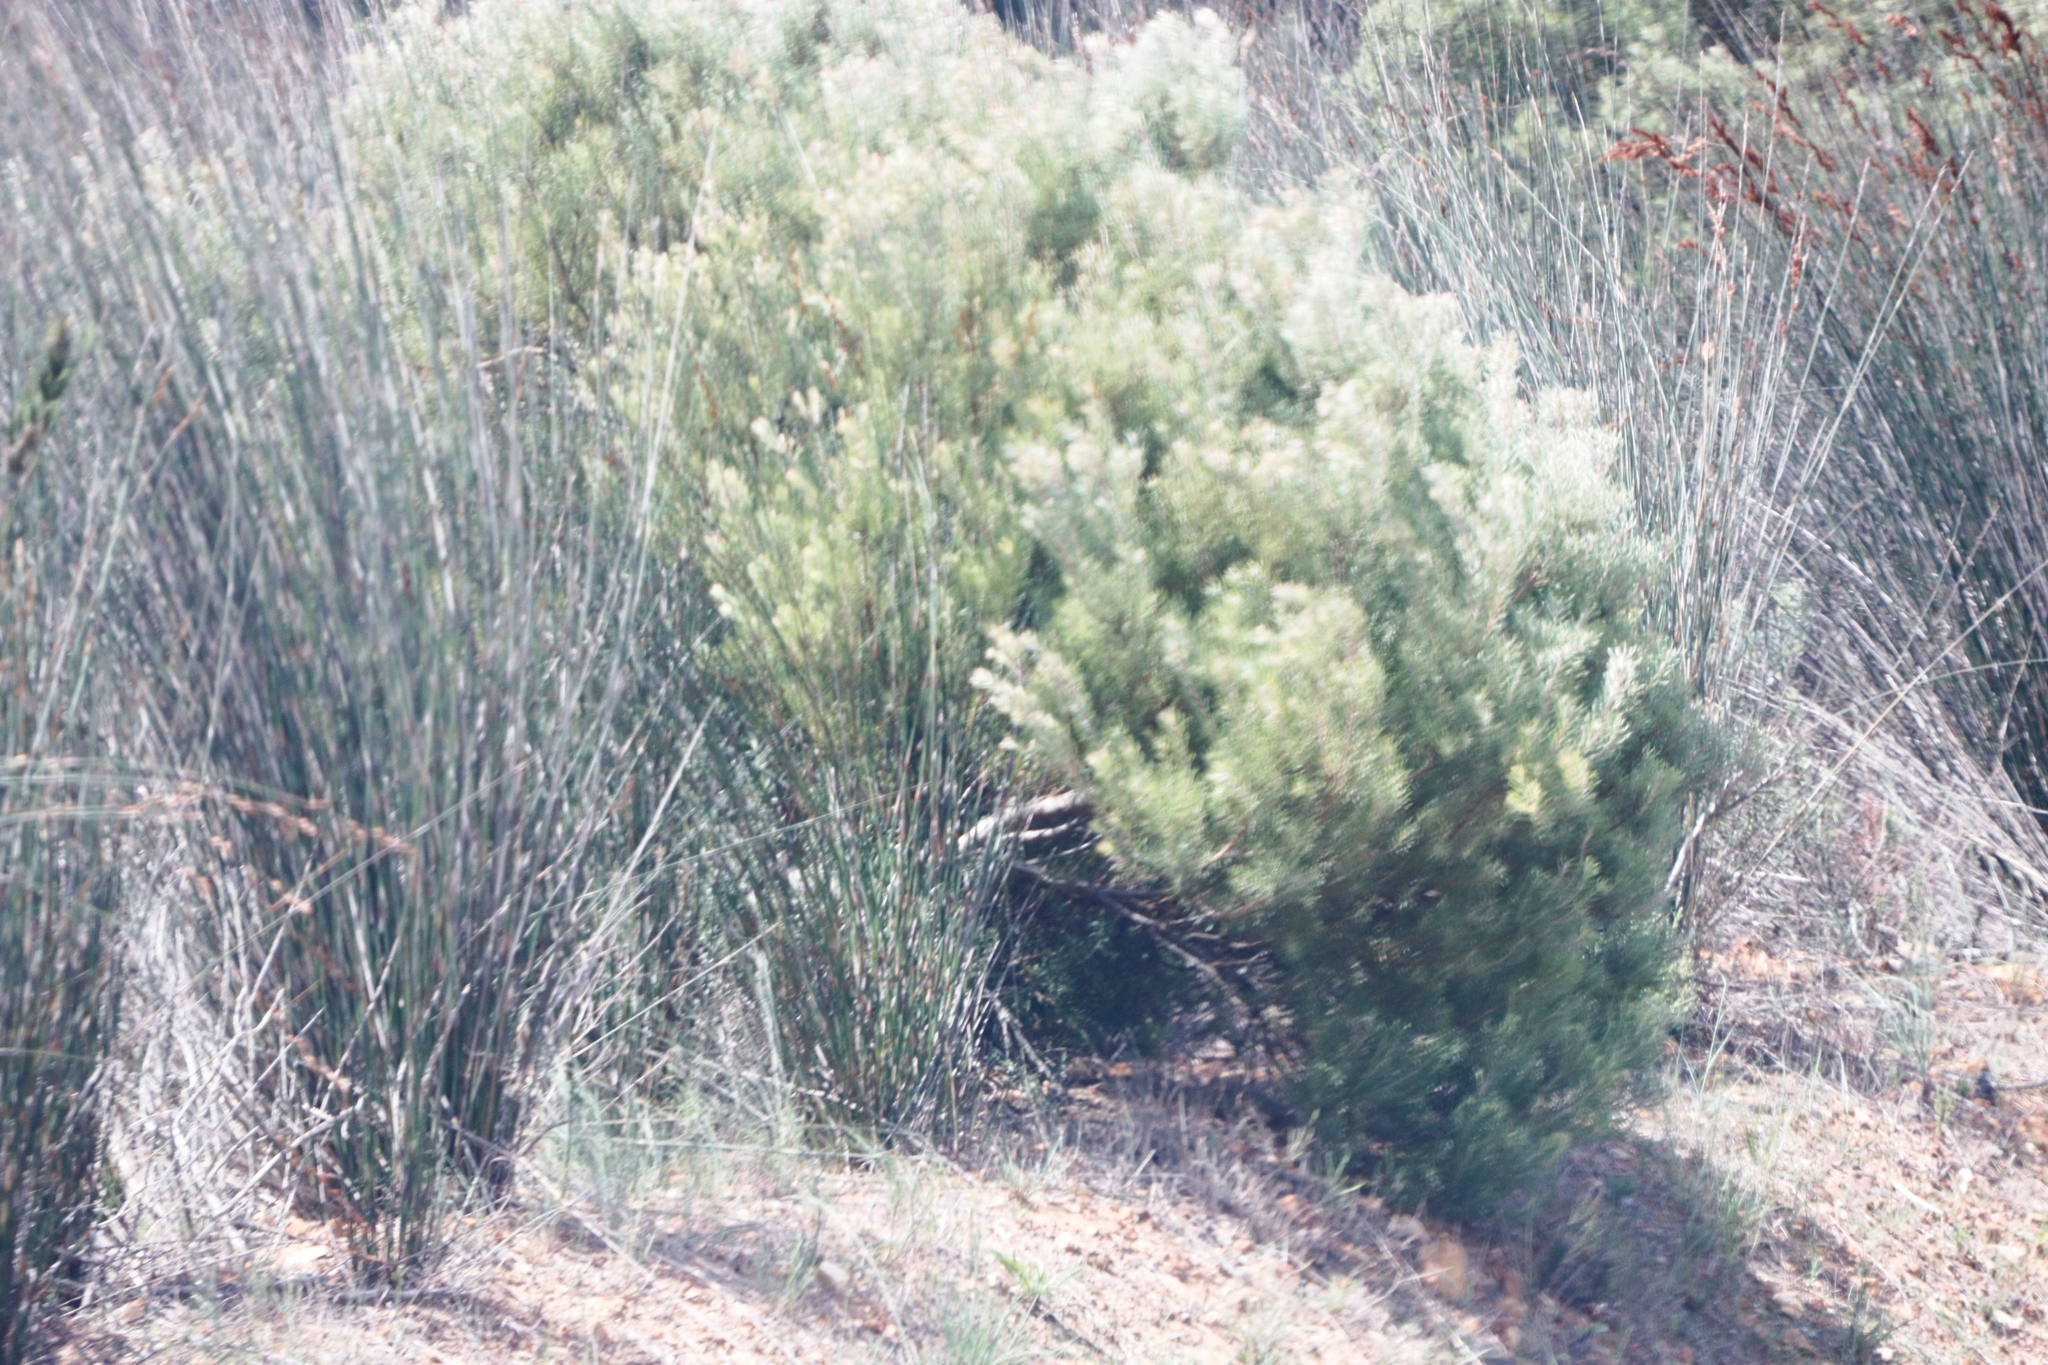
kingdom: Plantae
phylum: Tracheophyta
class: Magnoliopsida
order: Proteales
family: Proteaceae
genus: Leucadendron
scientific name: Leucadendron galpinii
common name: Hairless conebush
